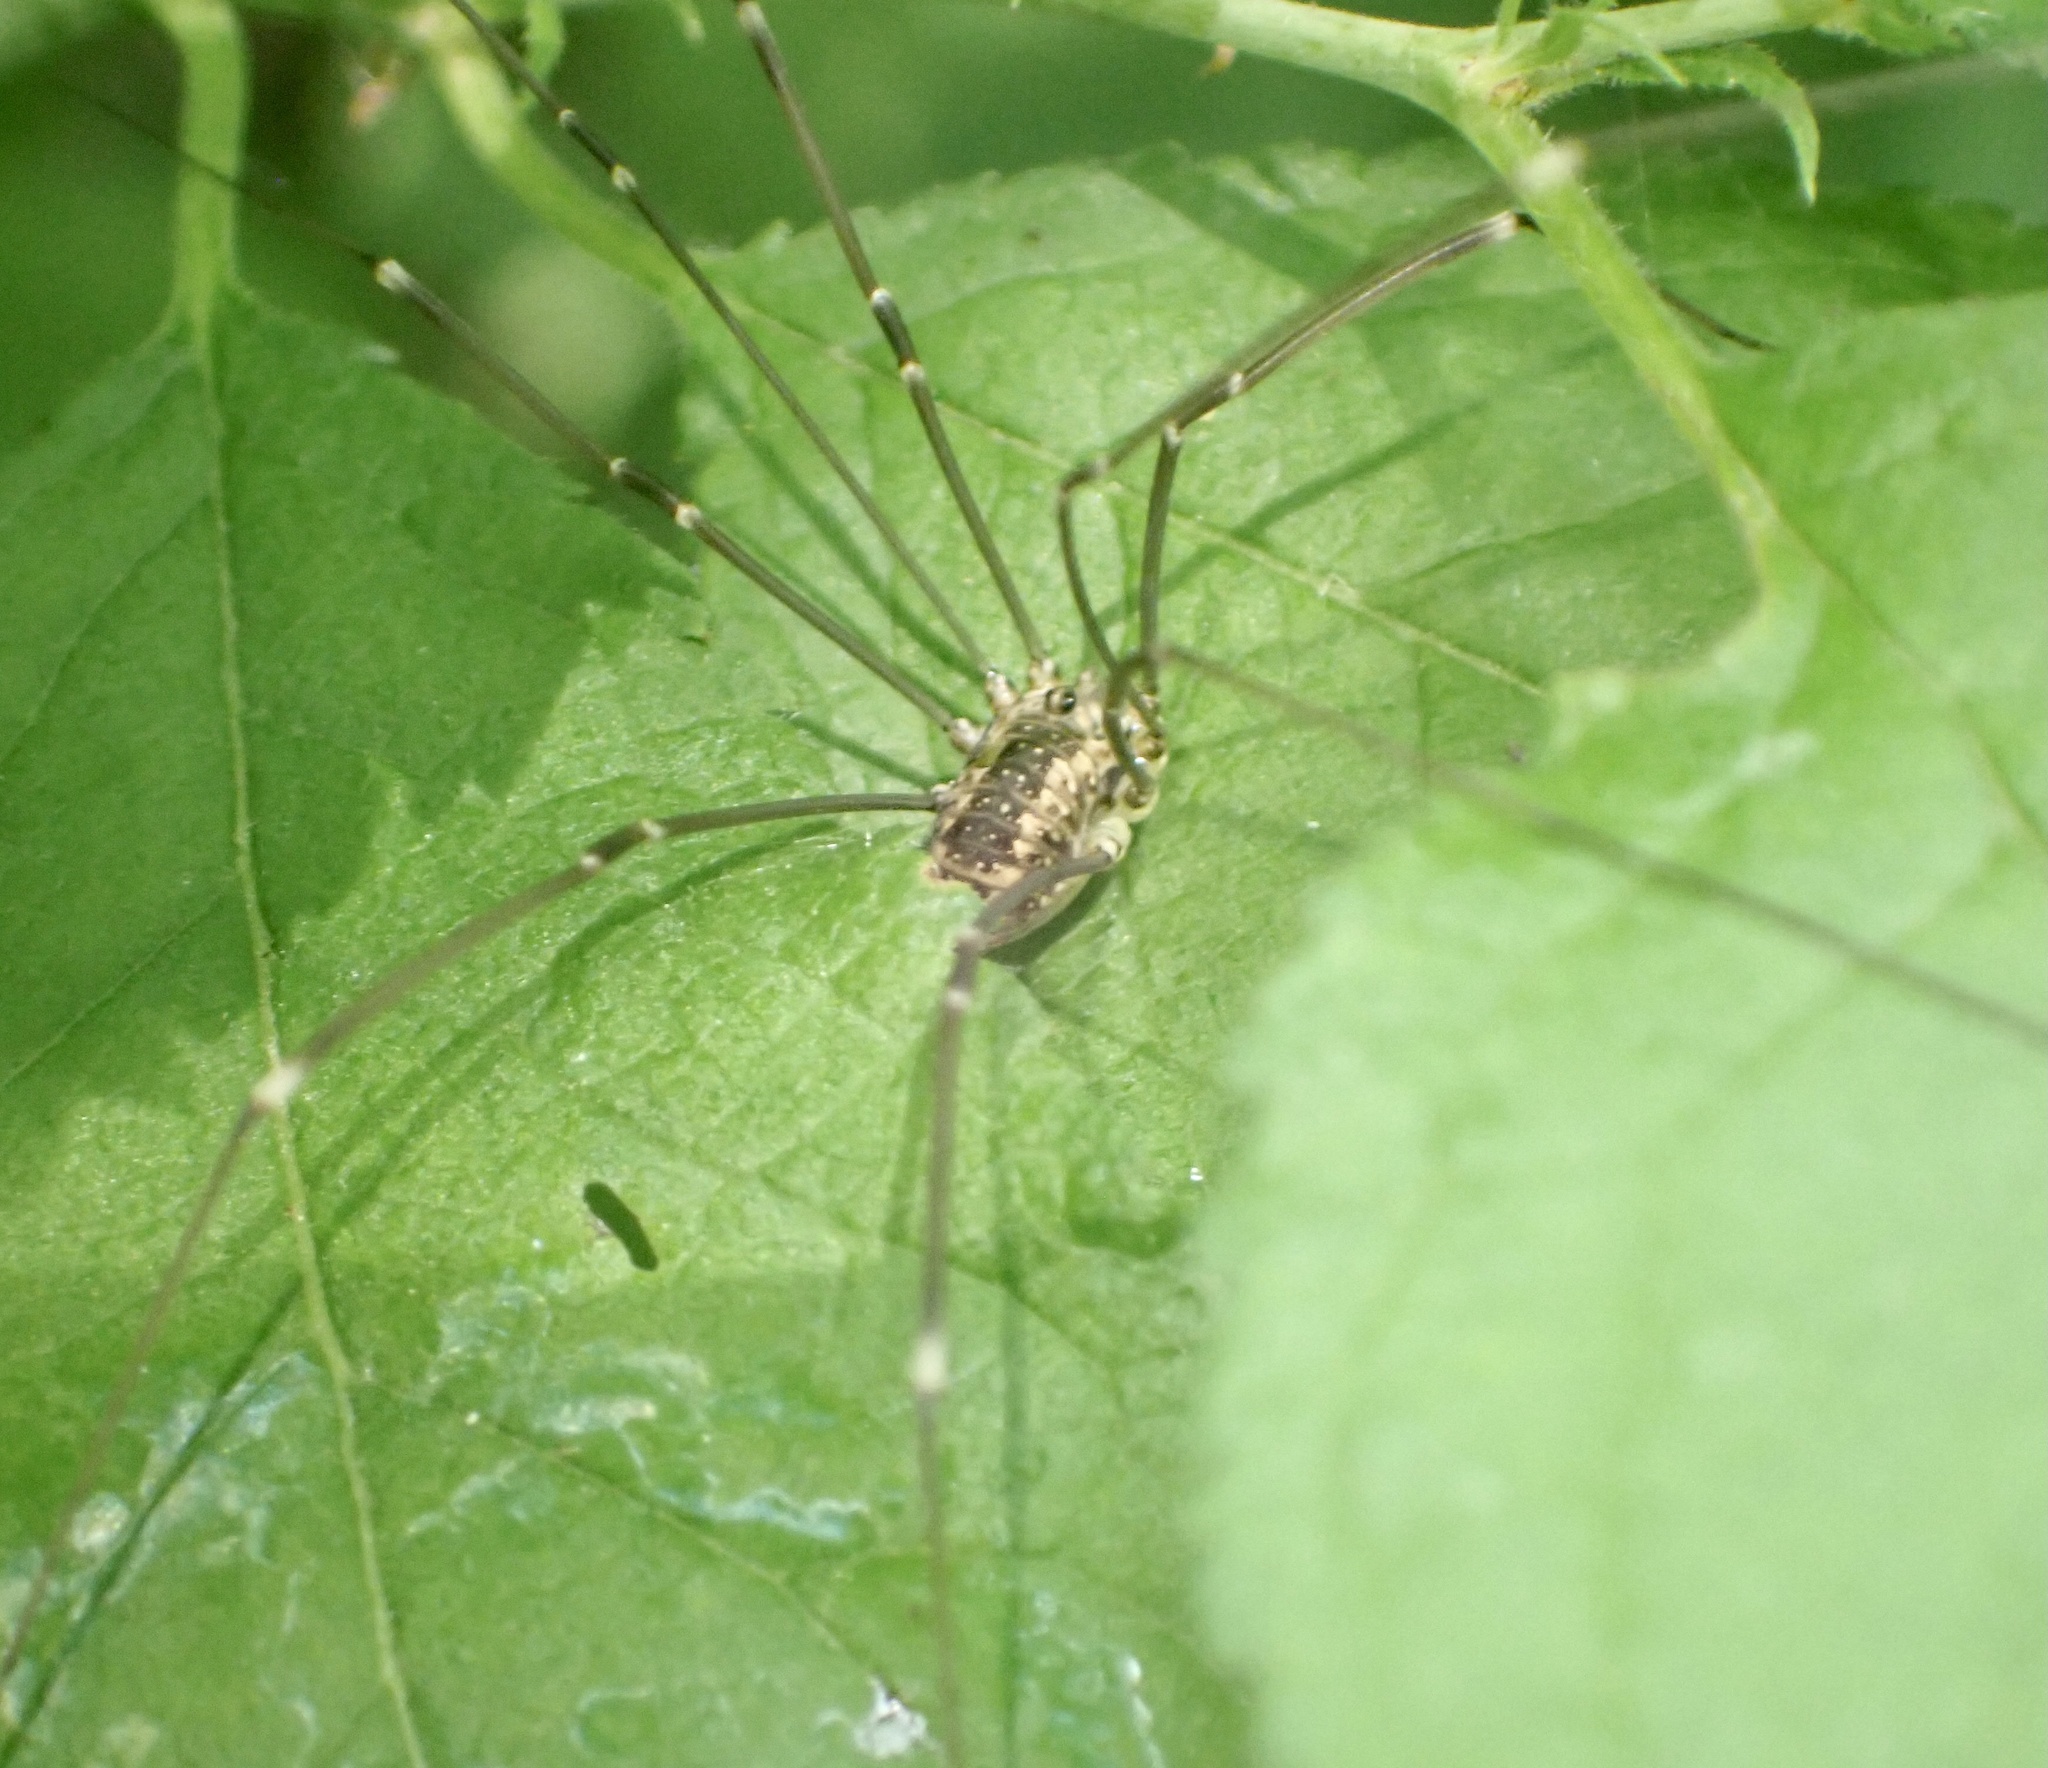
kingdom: Animalia
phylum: Arthropoda
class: Arachnida
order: Opiliones
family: Sclerosomatidae
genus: Leiobunum
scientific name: Leiobunum rotundum
